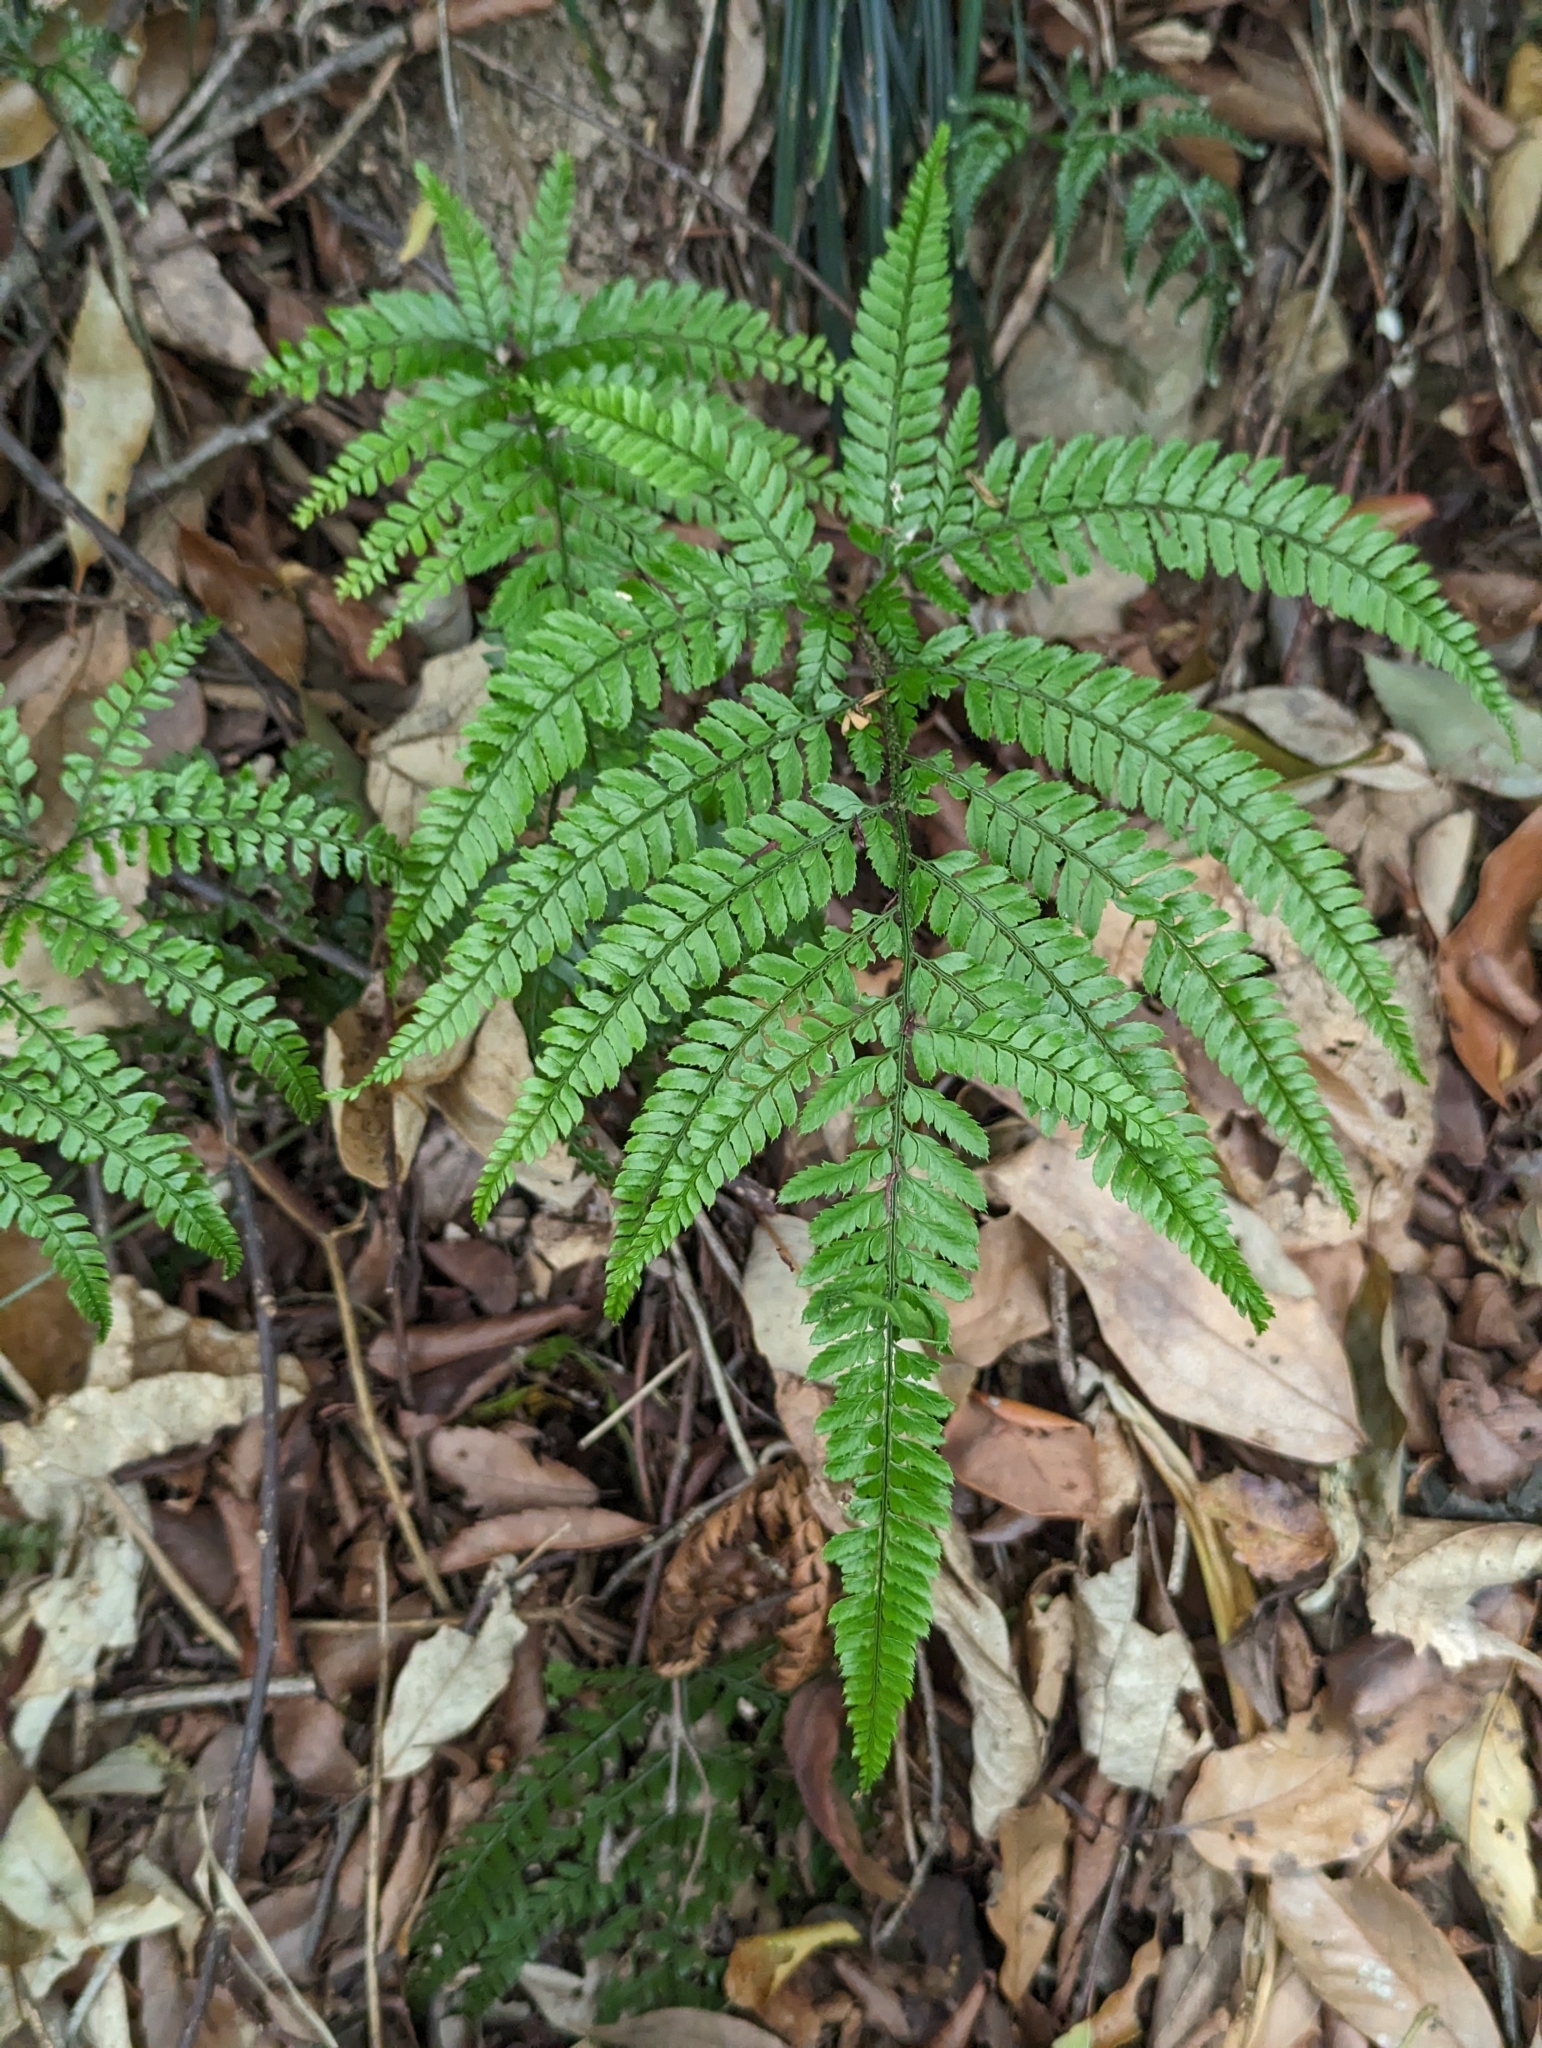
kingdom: Plantae
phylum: Tracheophyta
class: Polypodiopsida
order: Polypodiales
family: Dryopteridaceae
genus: Arachniodes
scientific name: Arachniodes aristata
